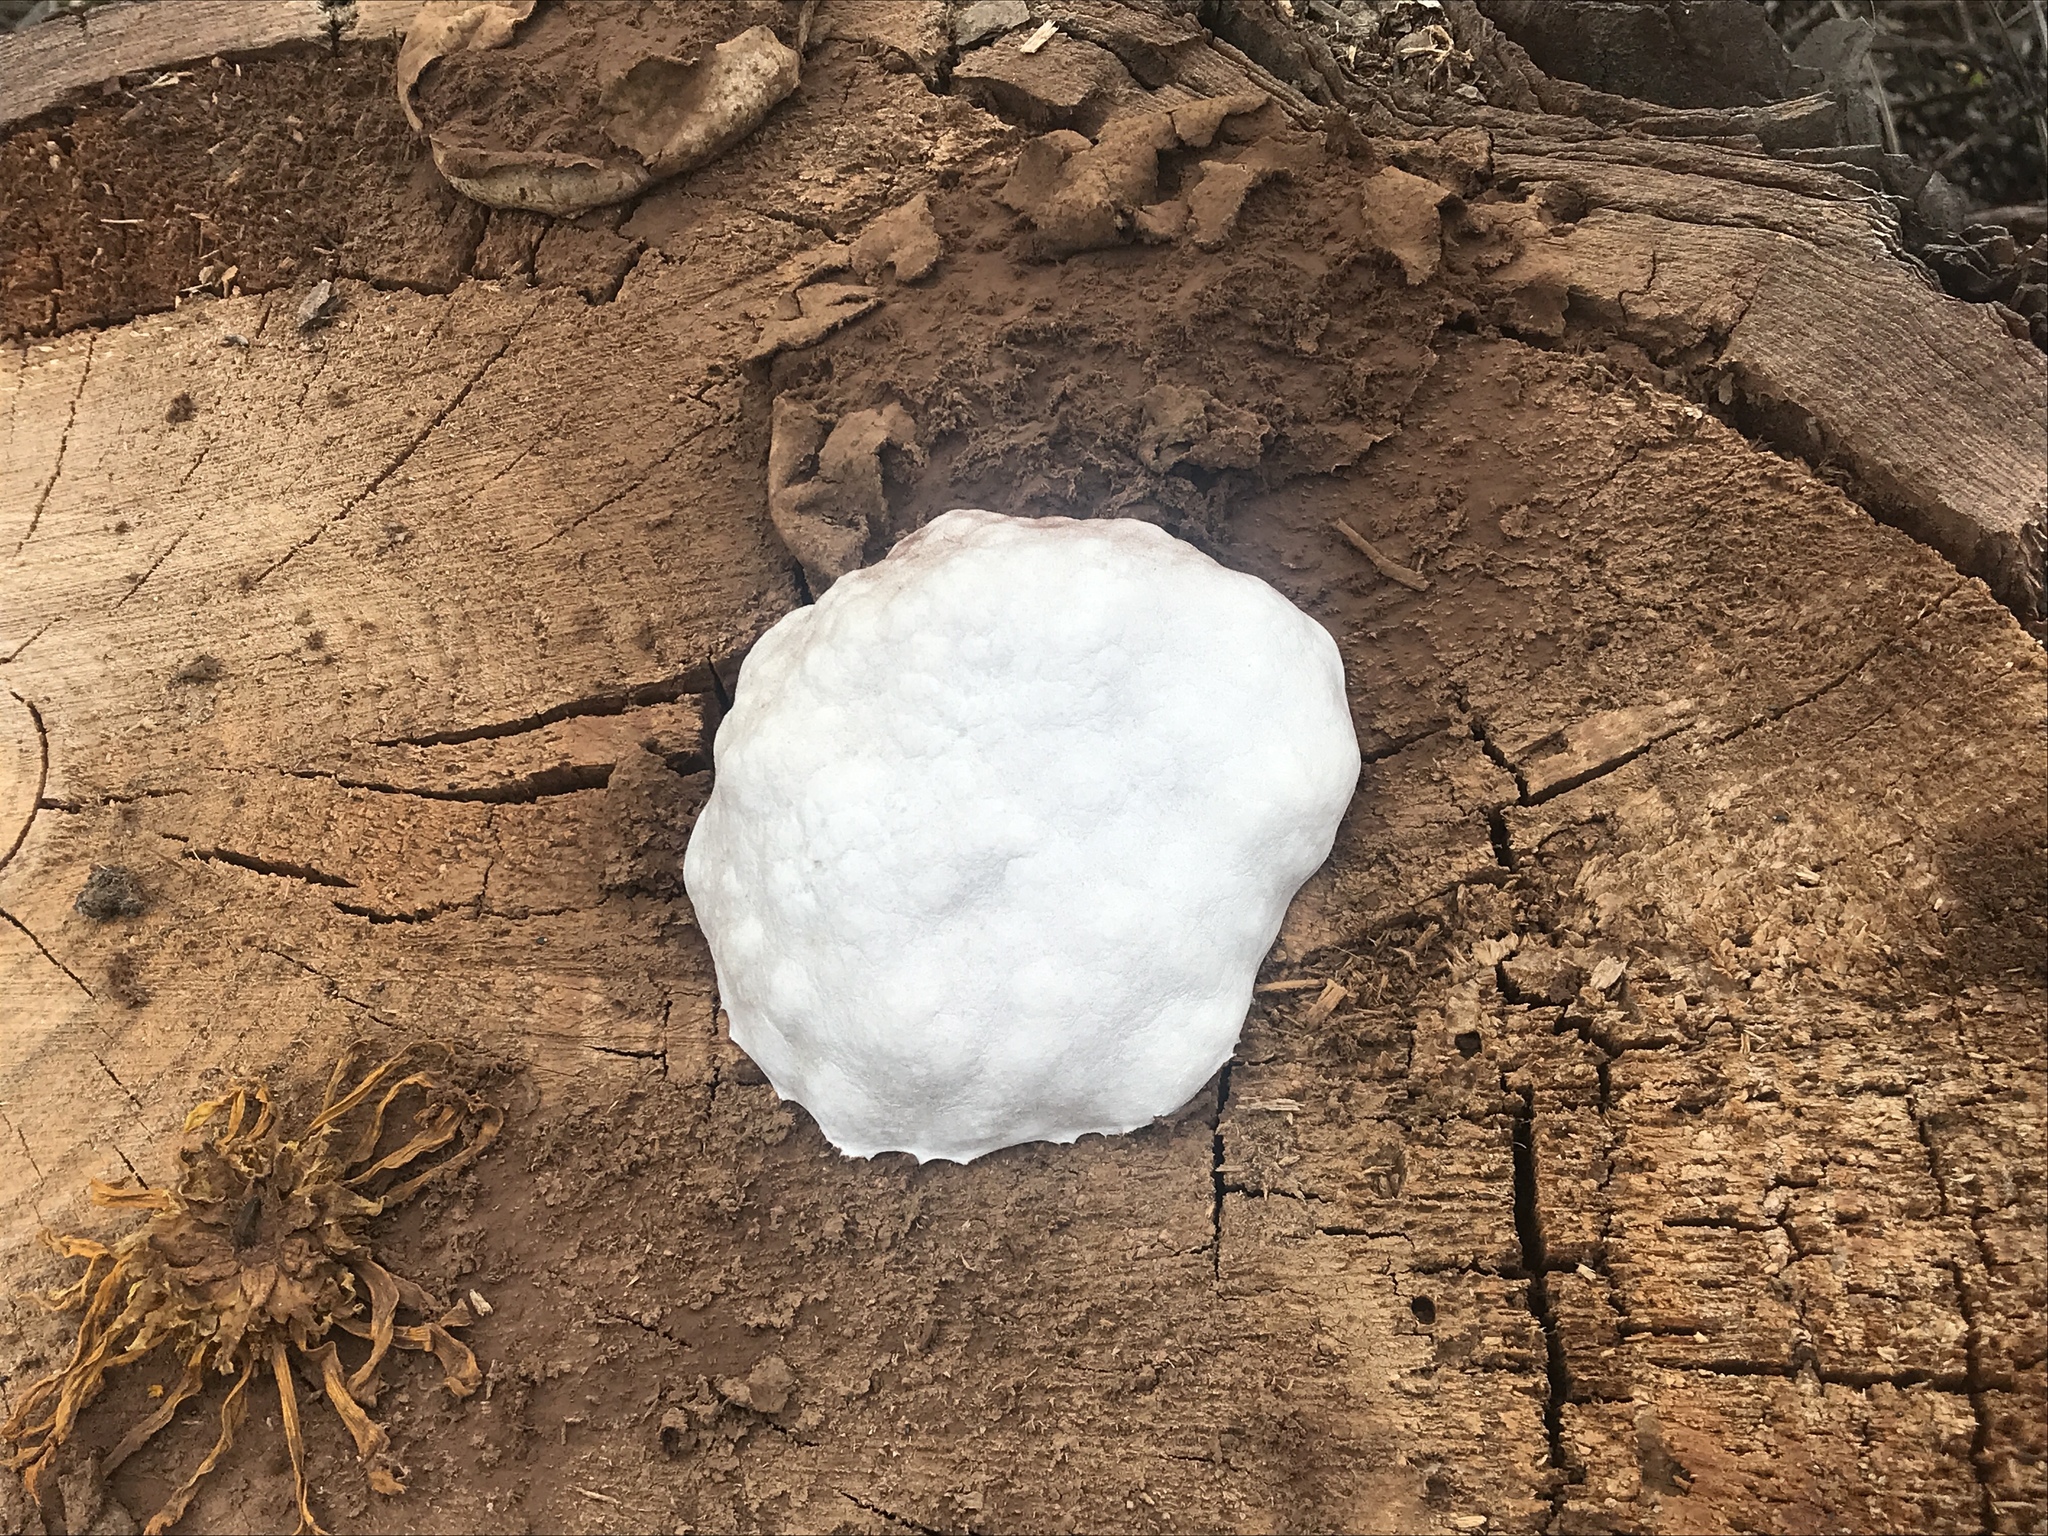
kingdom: Protozoa
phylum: Mycetozoa
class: Myxomycetes
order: Cribrariales
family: Tubiferaceae
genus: Reticularia
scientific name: Reticularia lycoperdon
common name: False puffball
